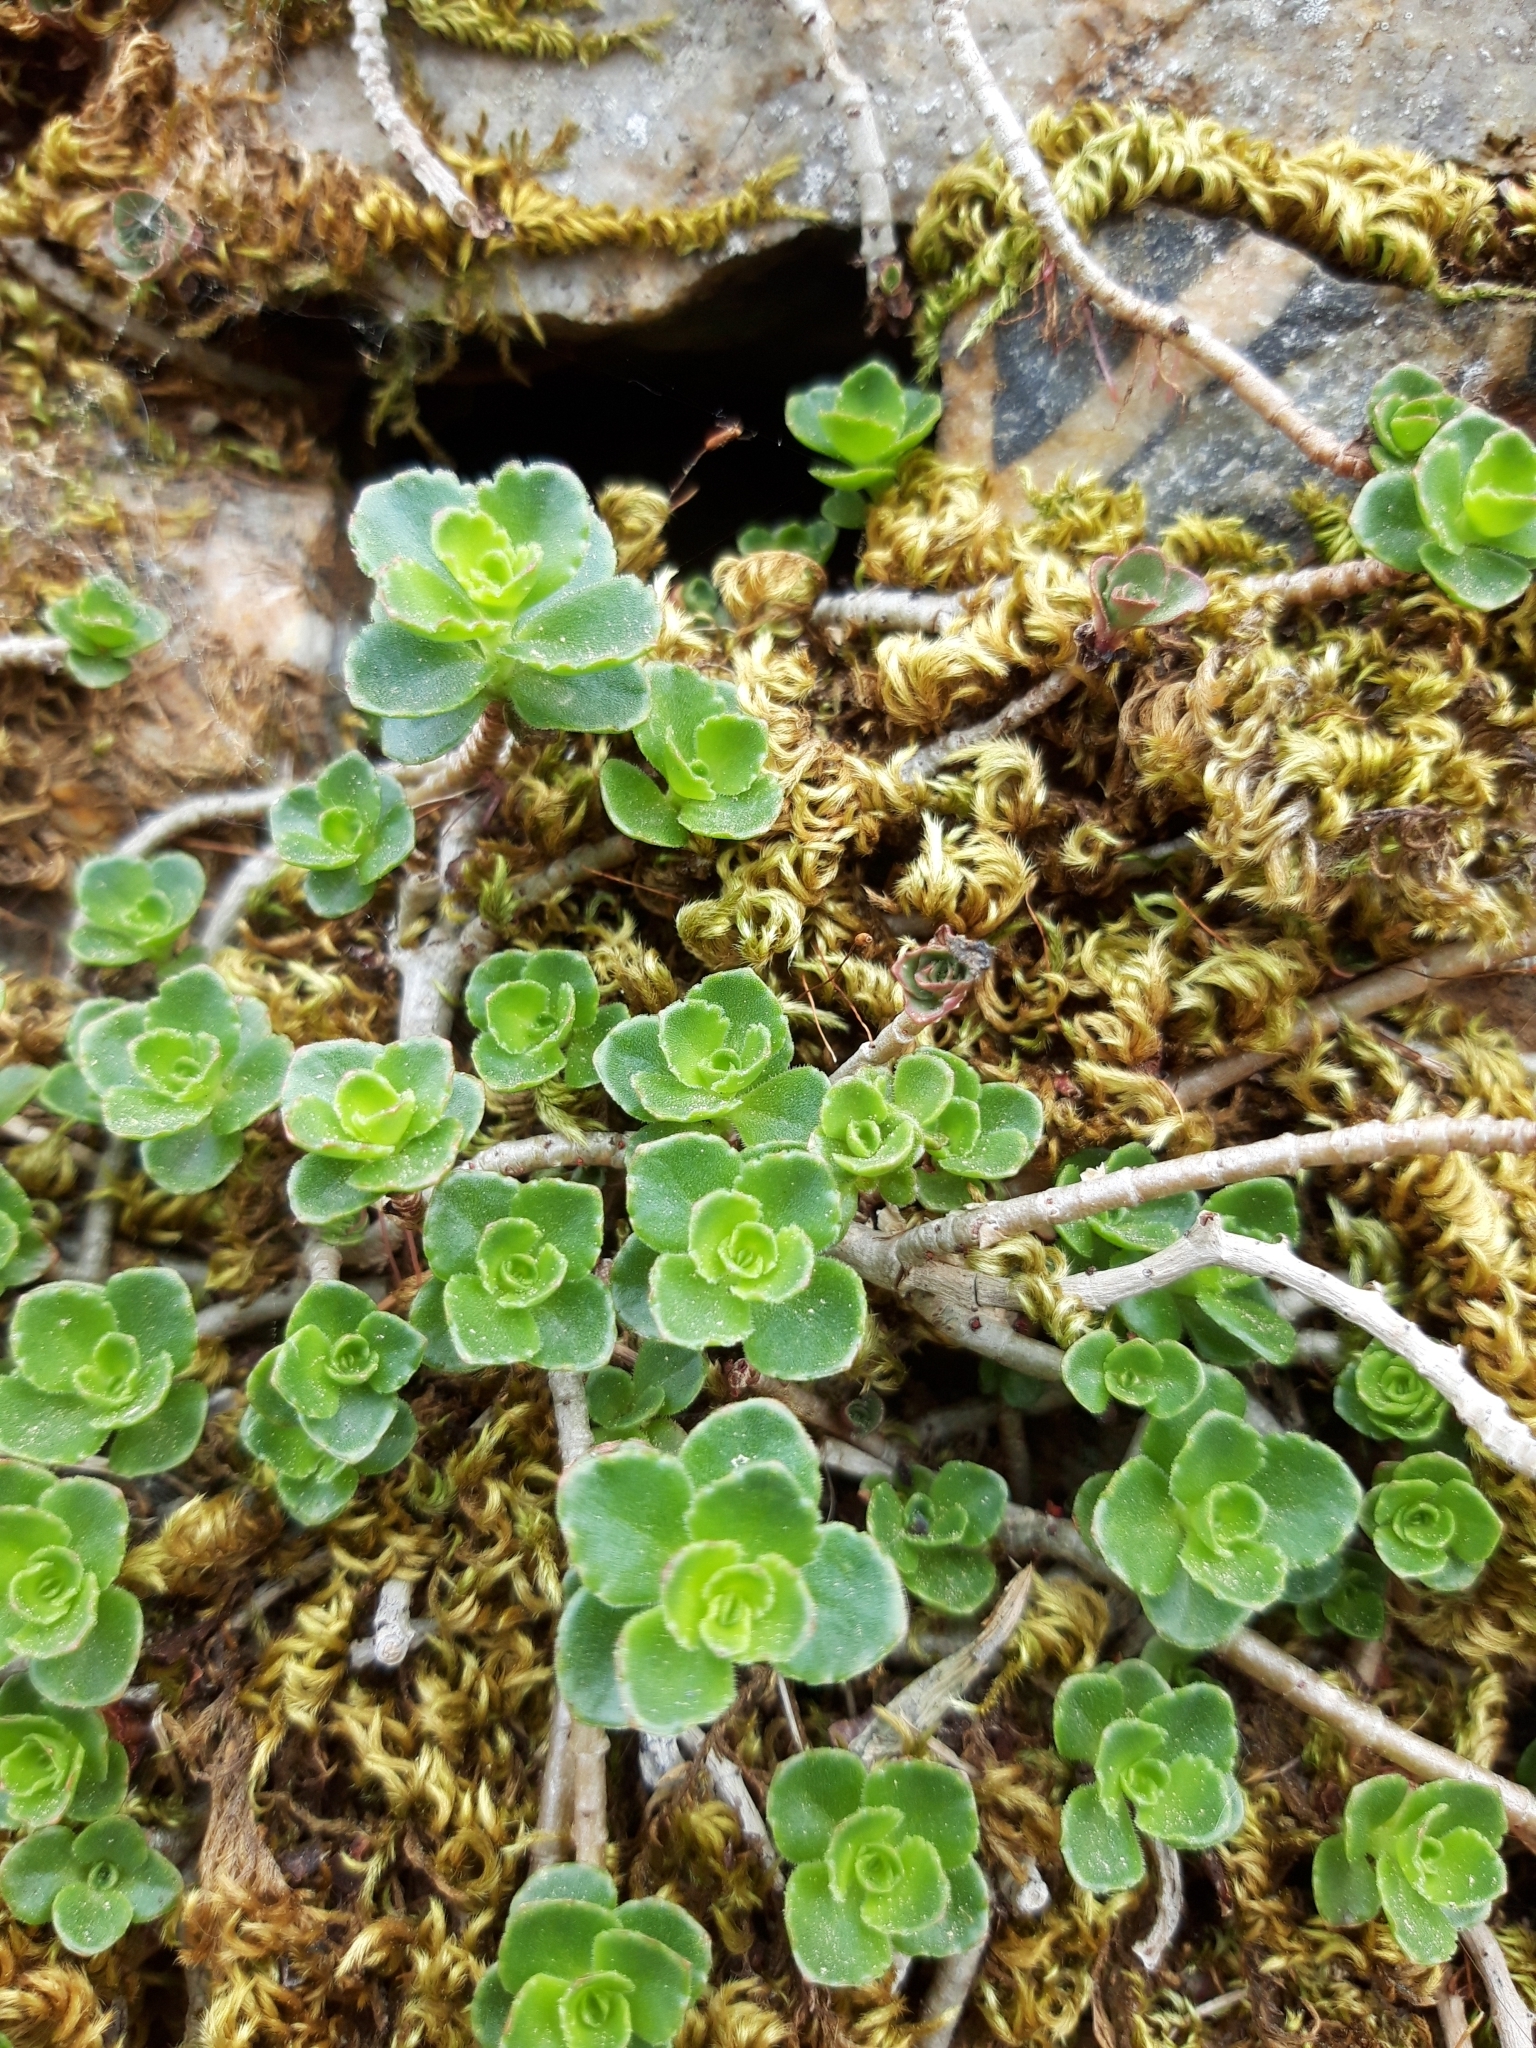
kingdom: Plantae
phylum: Tracheophyta
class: Magnoliopsida
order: Saxifragales
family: Crassulaceae
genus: Phedimus
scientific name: Phedimus spurius
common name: Caucasian stonecrop
